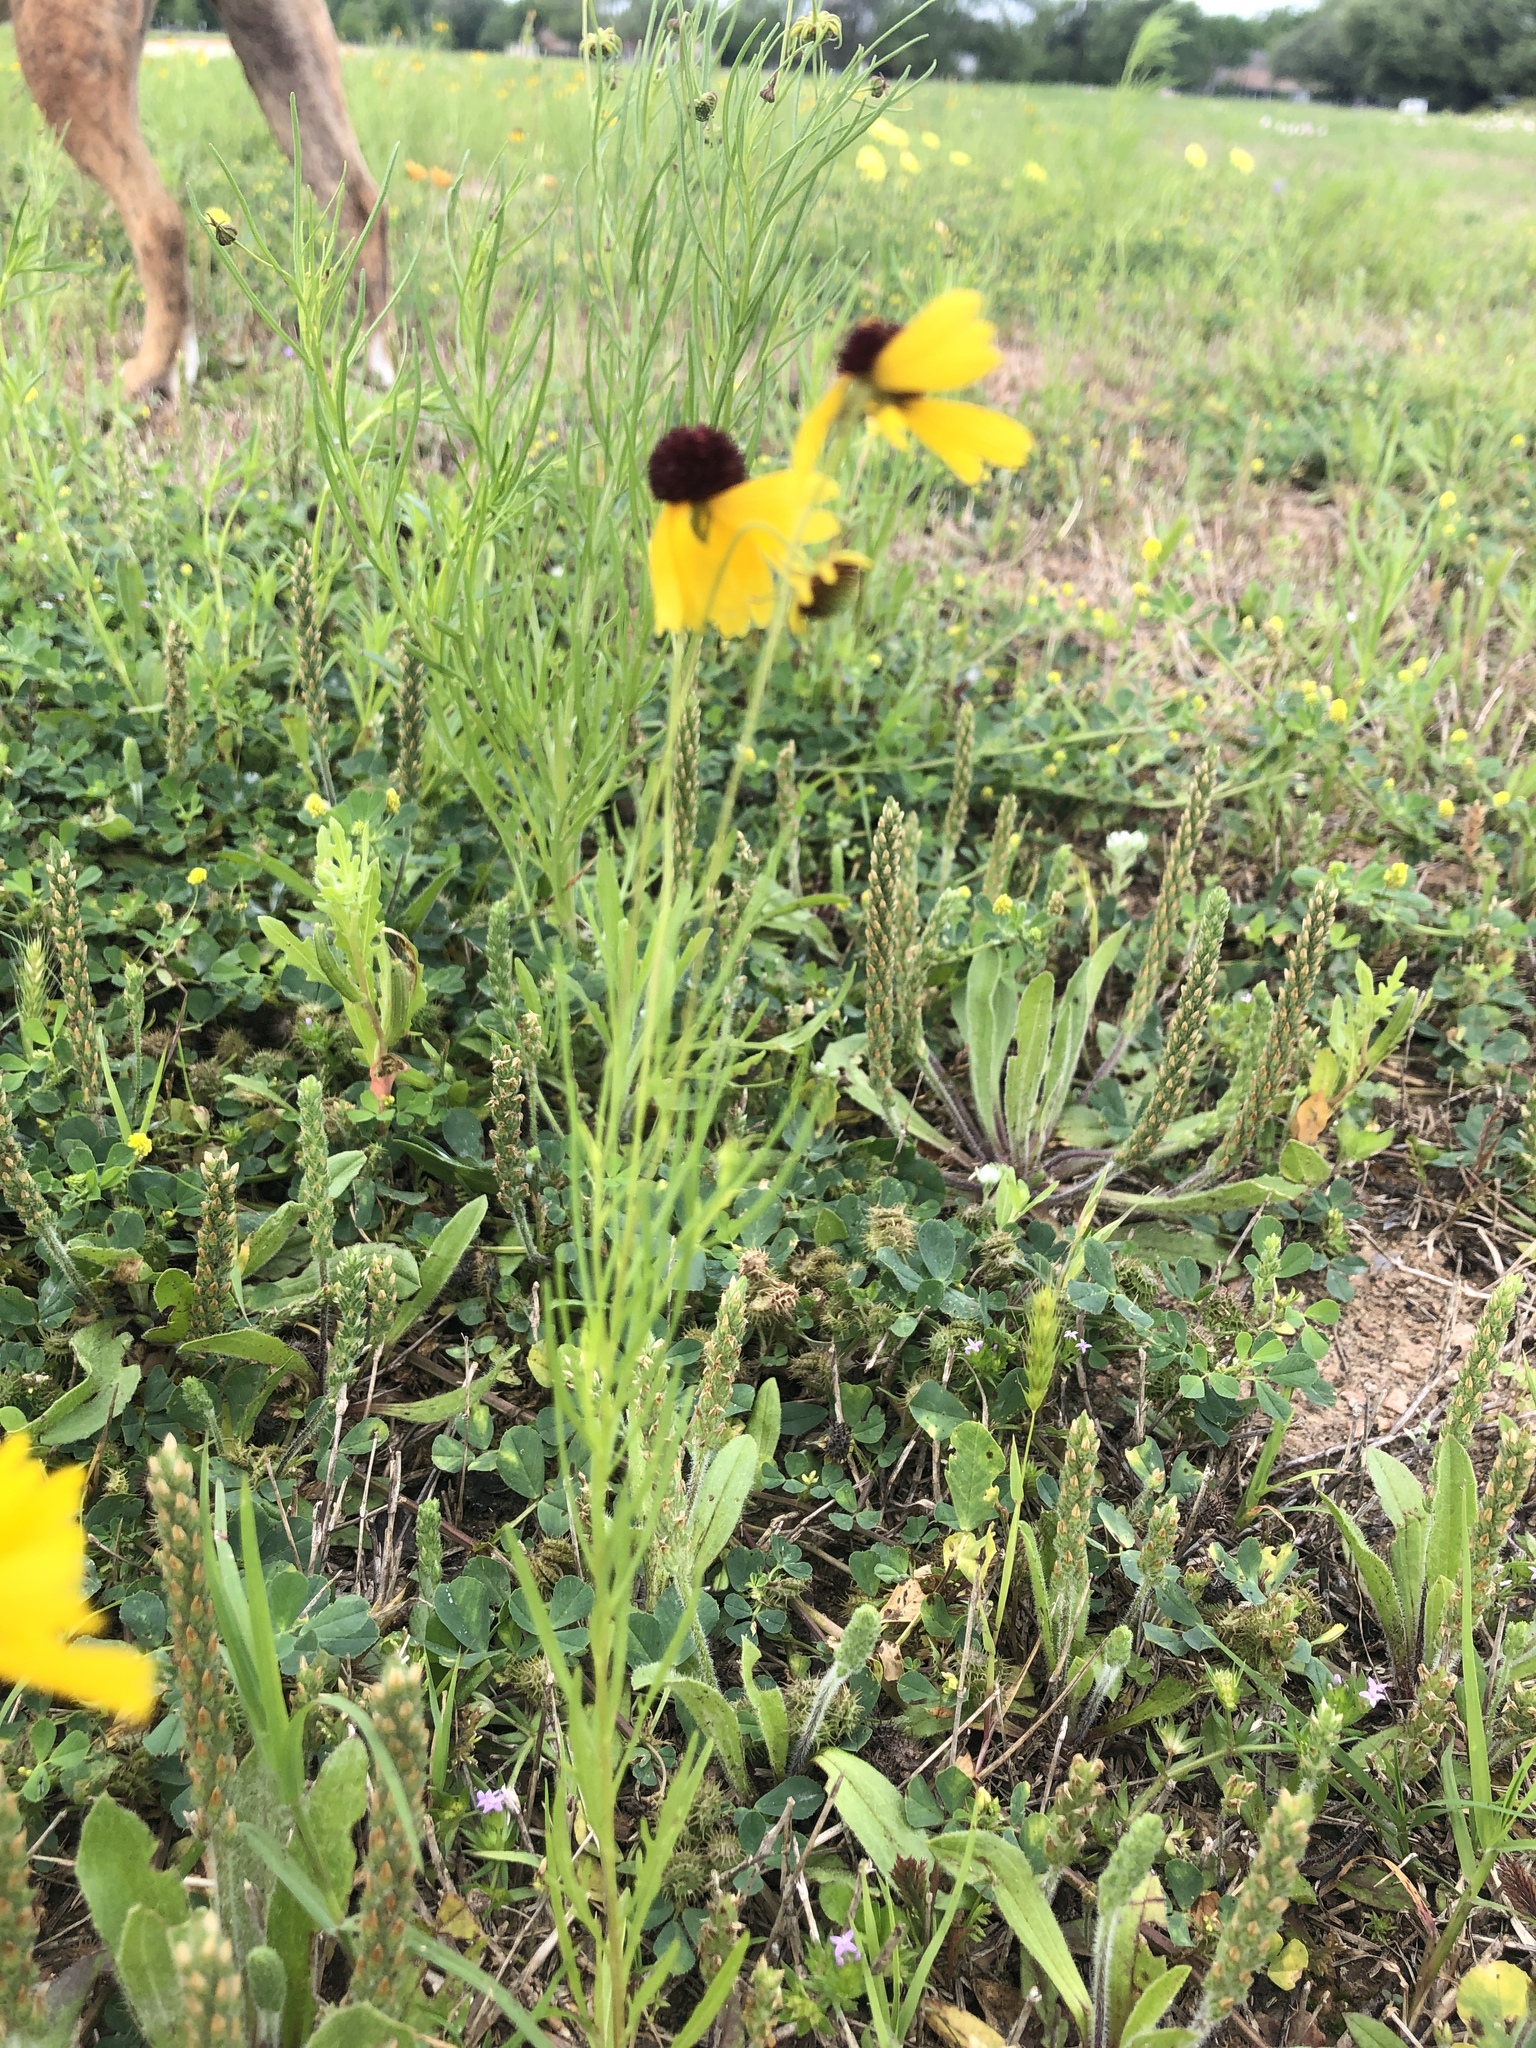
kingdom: Plantae
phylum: Tracheophyta
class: Magnoliopsida
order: Asterales
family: Asteraceae
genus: Helenium
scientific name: Helenium amarum
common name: Bitter sneezeweed
